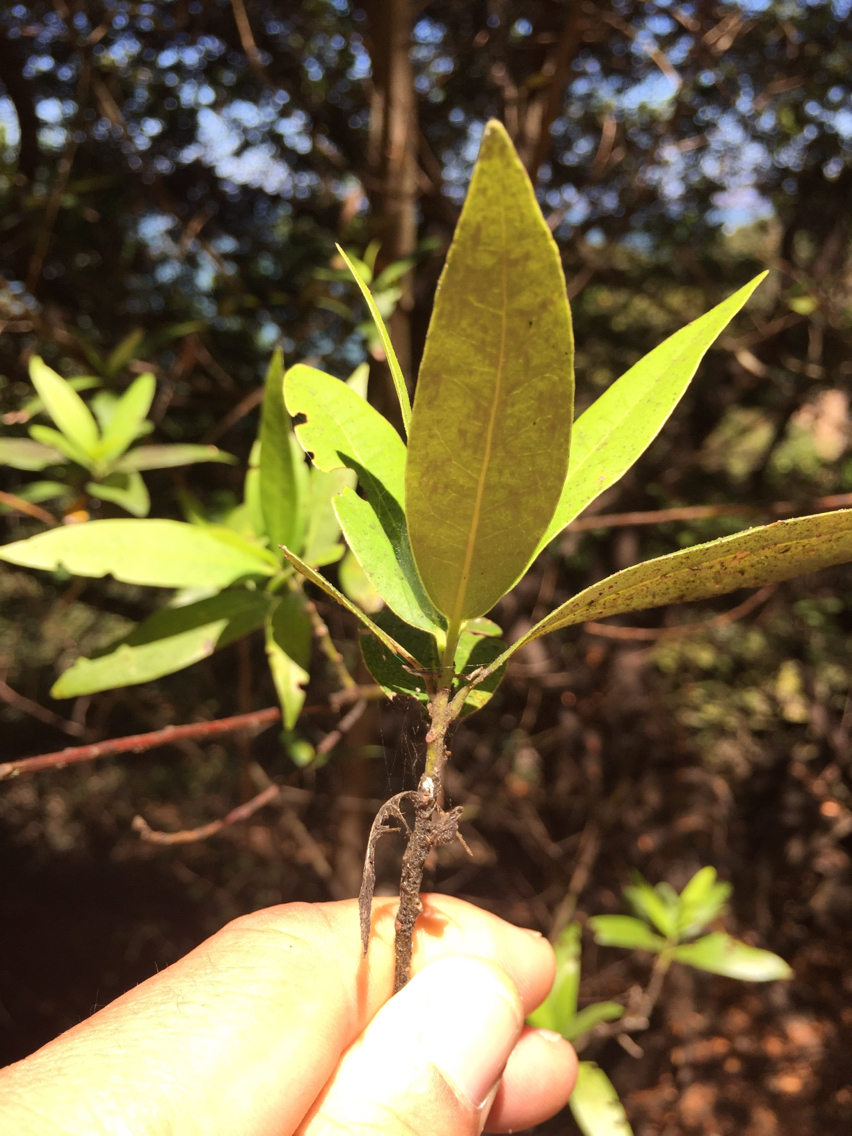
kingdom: Plantae
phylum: Tracheophyta
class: Magnoliopsida
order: Laurales
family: Lauraceae
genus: Umbellularia
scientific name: Umbellularia californica
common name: California bay
